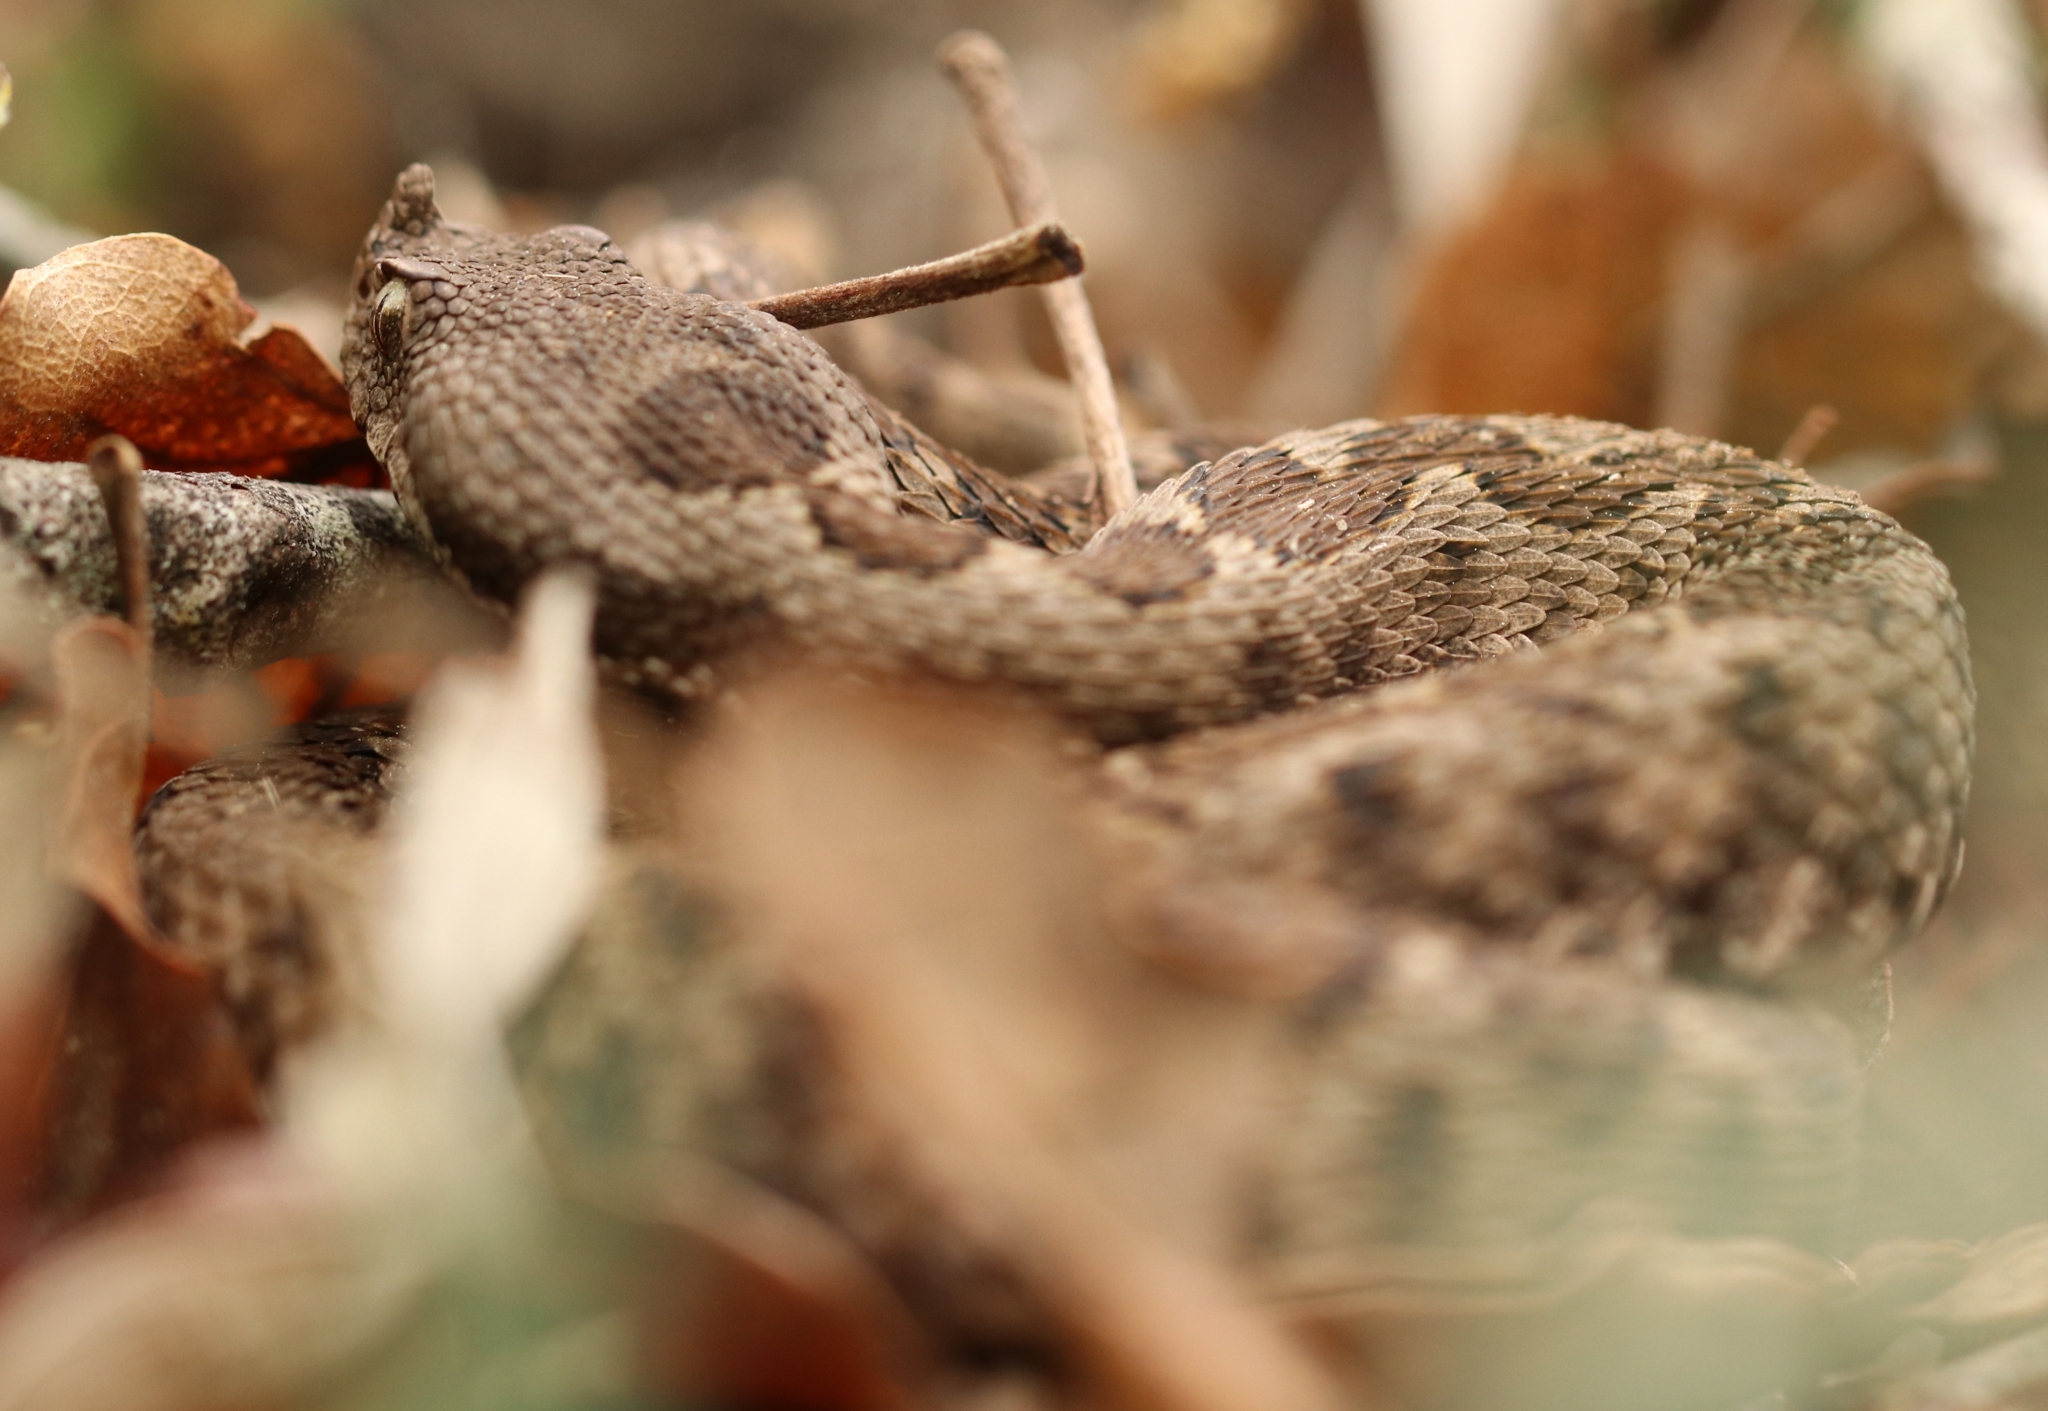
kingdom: Animalia
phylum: Chordata
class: Squamata
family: Viperidae
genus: Vipera
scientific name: Vipera ammodytes
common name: Sand viper
